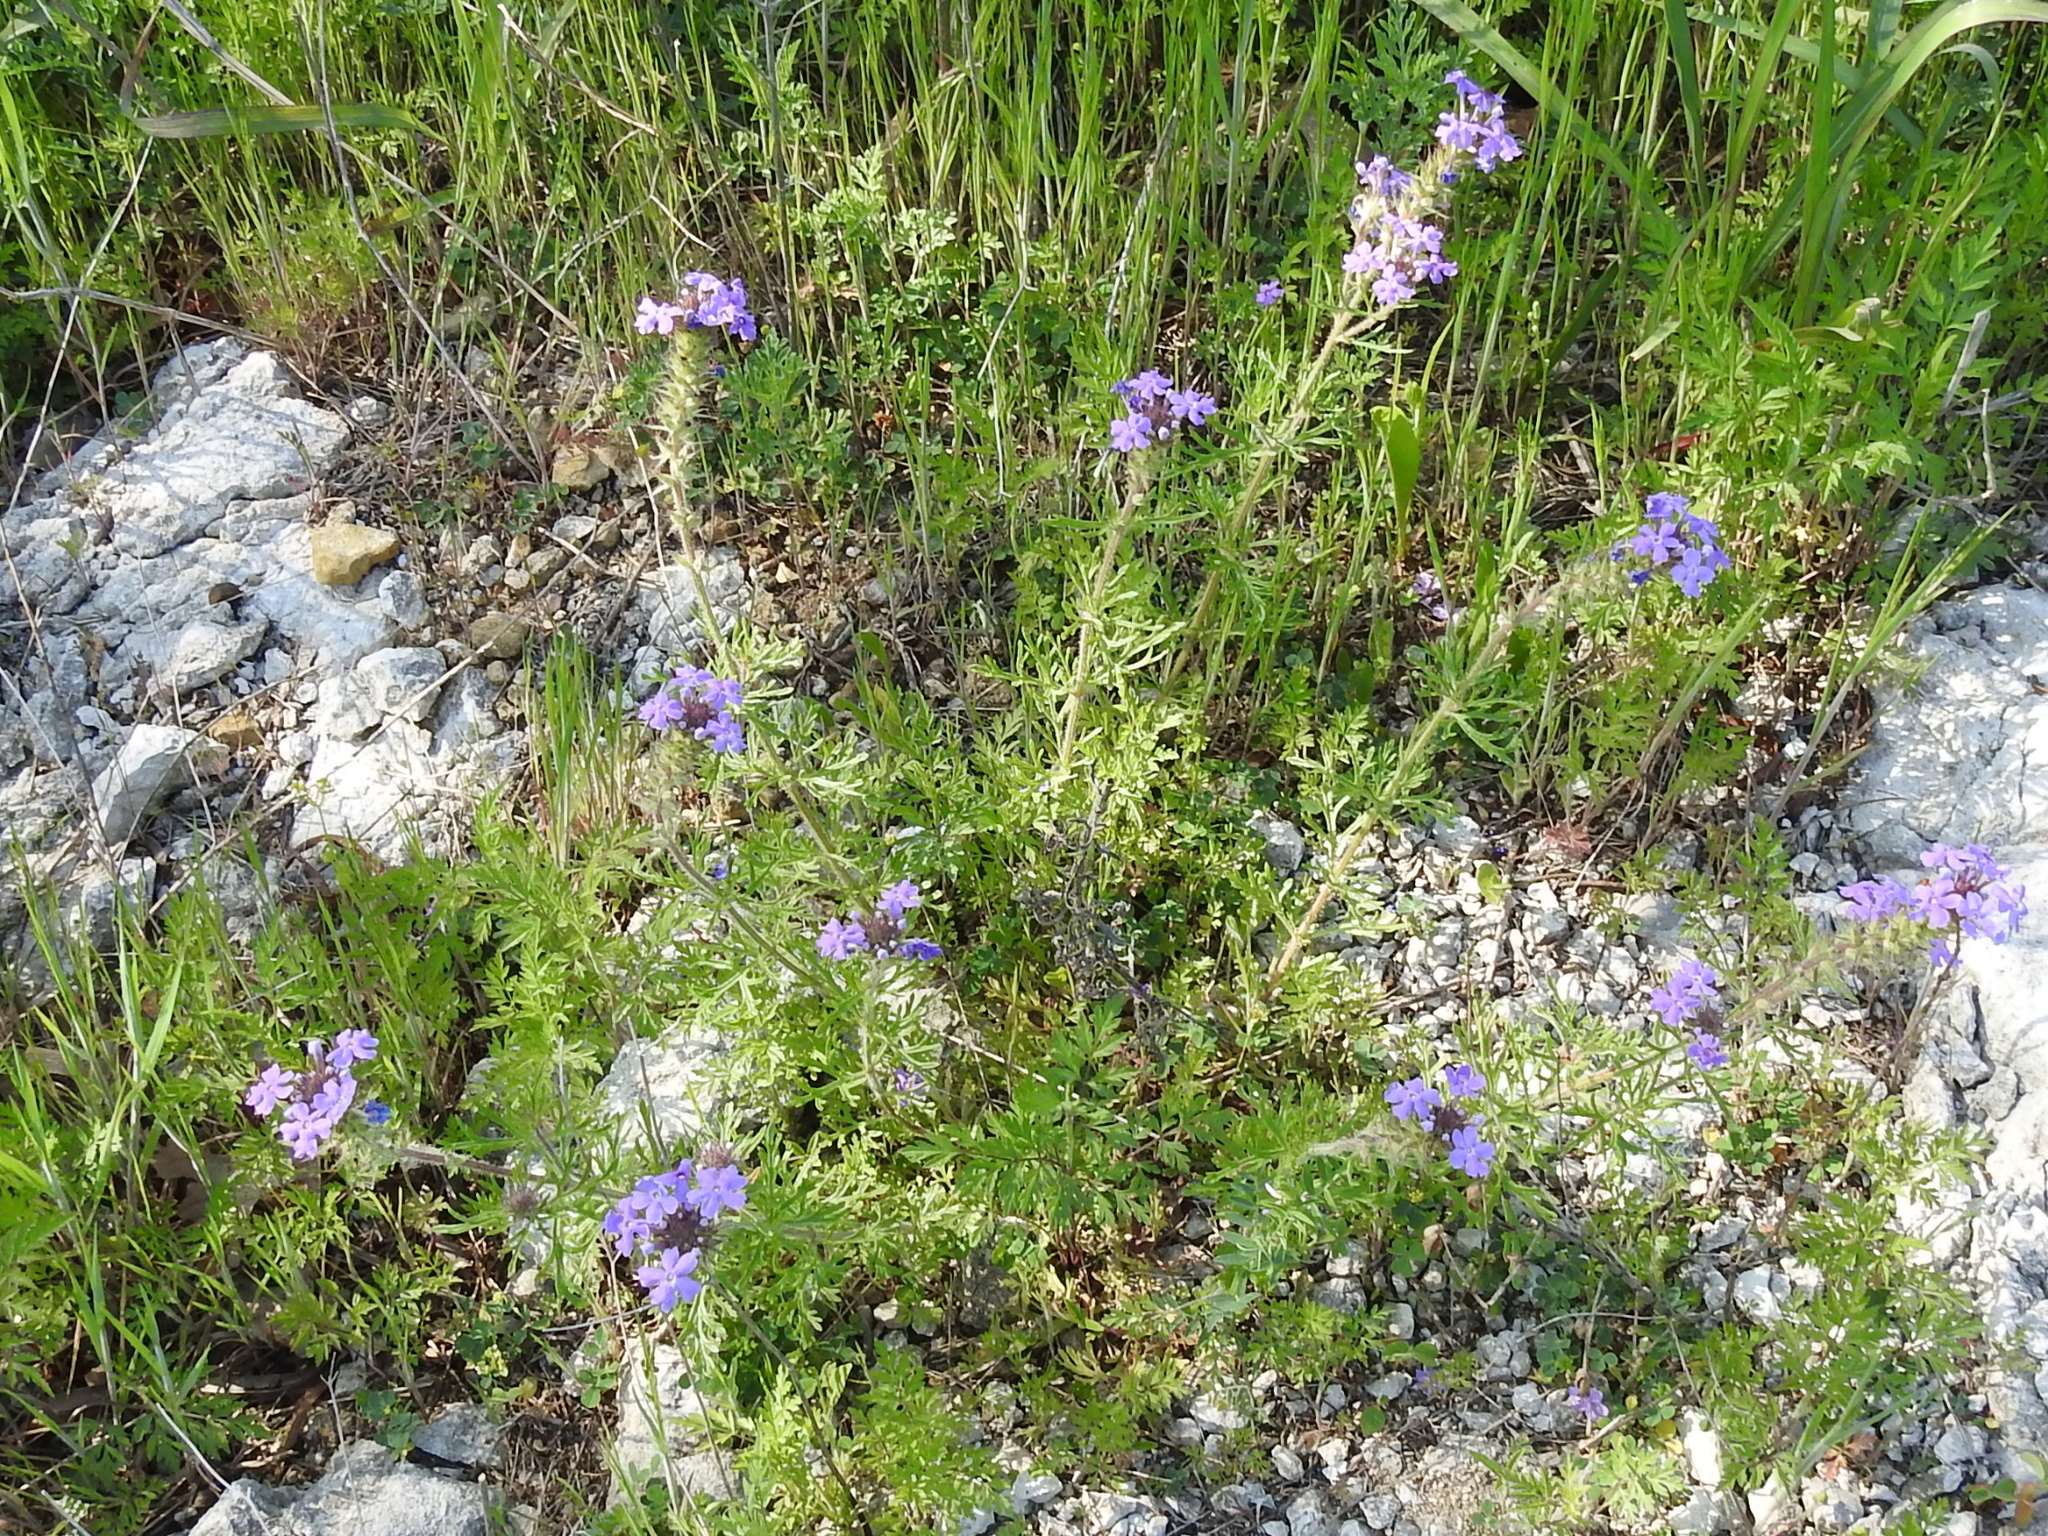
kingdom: Plantae
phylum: Tracheophyta
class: Magnoliopsida
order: Lamiales
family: Verbenaceae
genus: Verbena
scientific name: Verbena bipinnatifida
